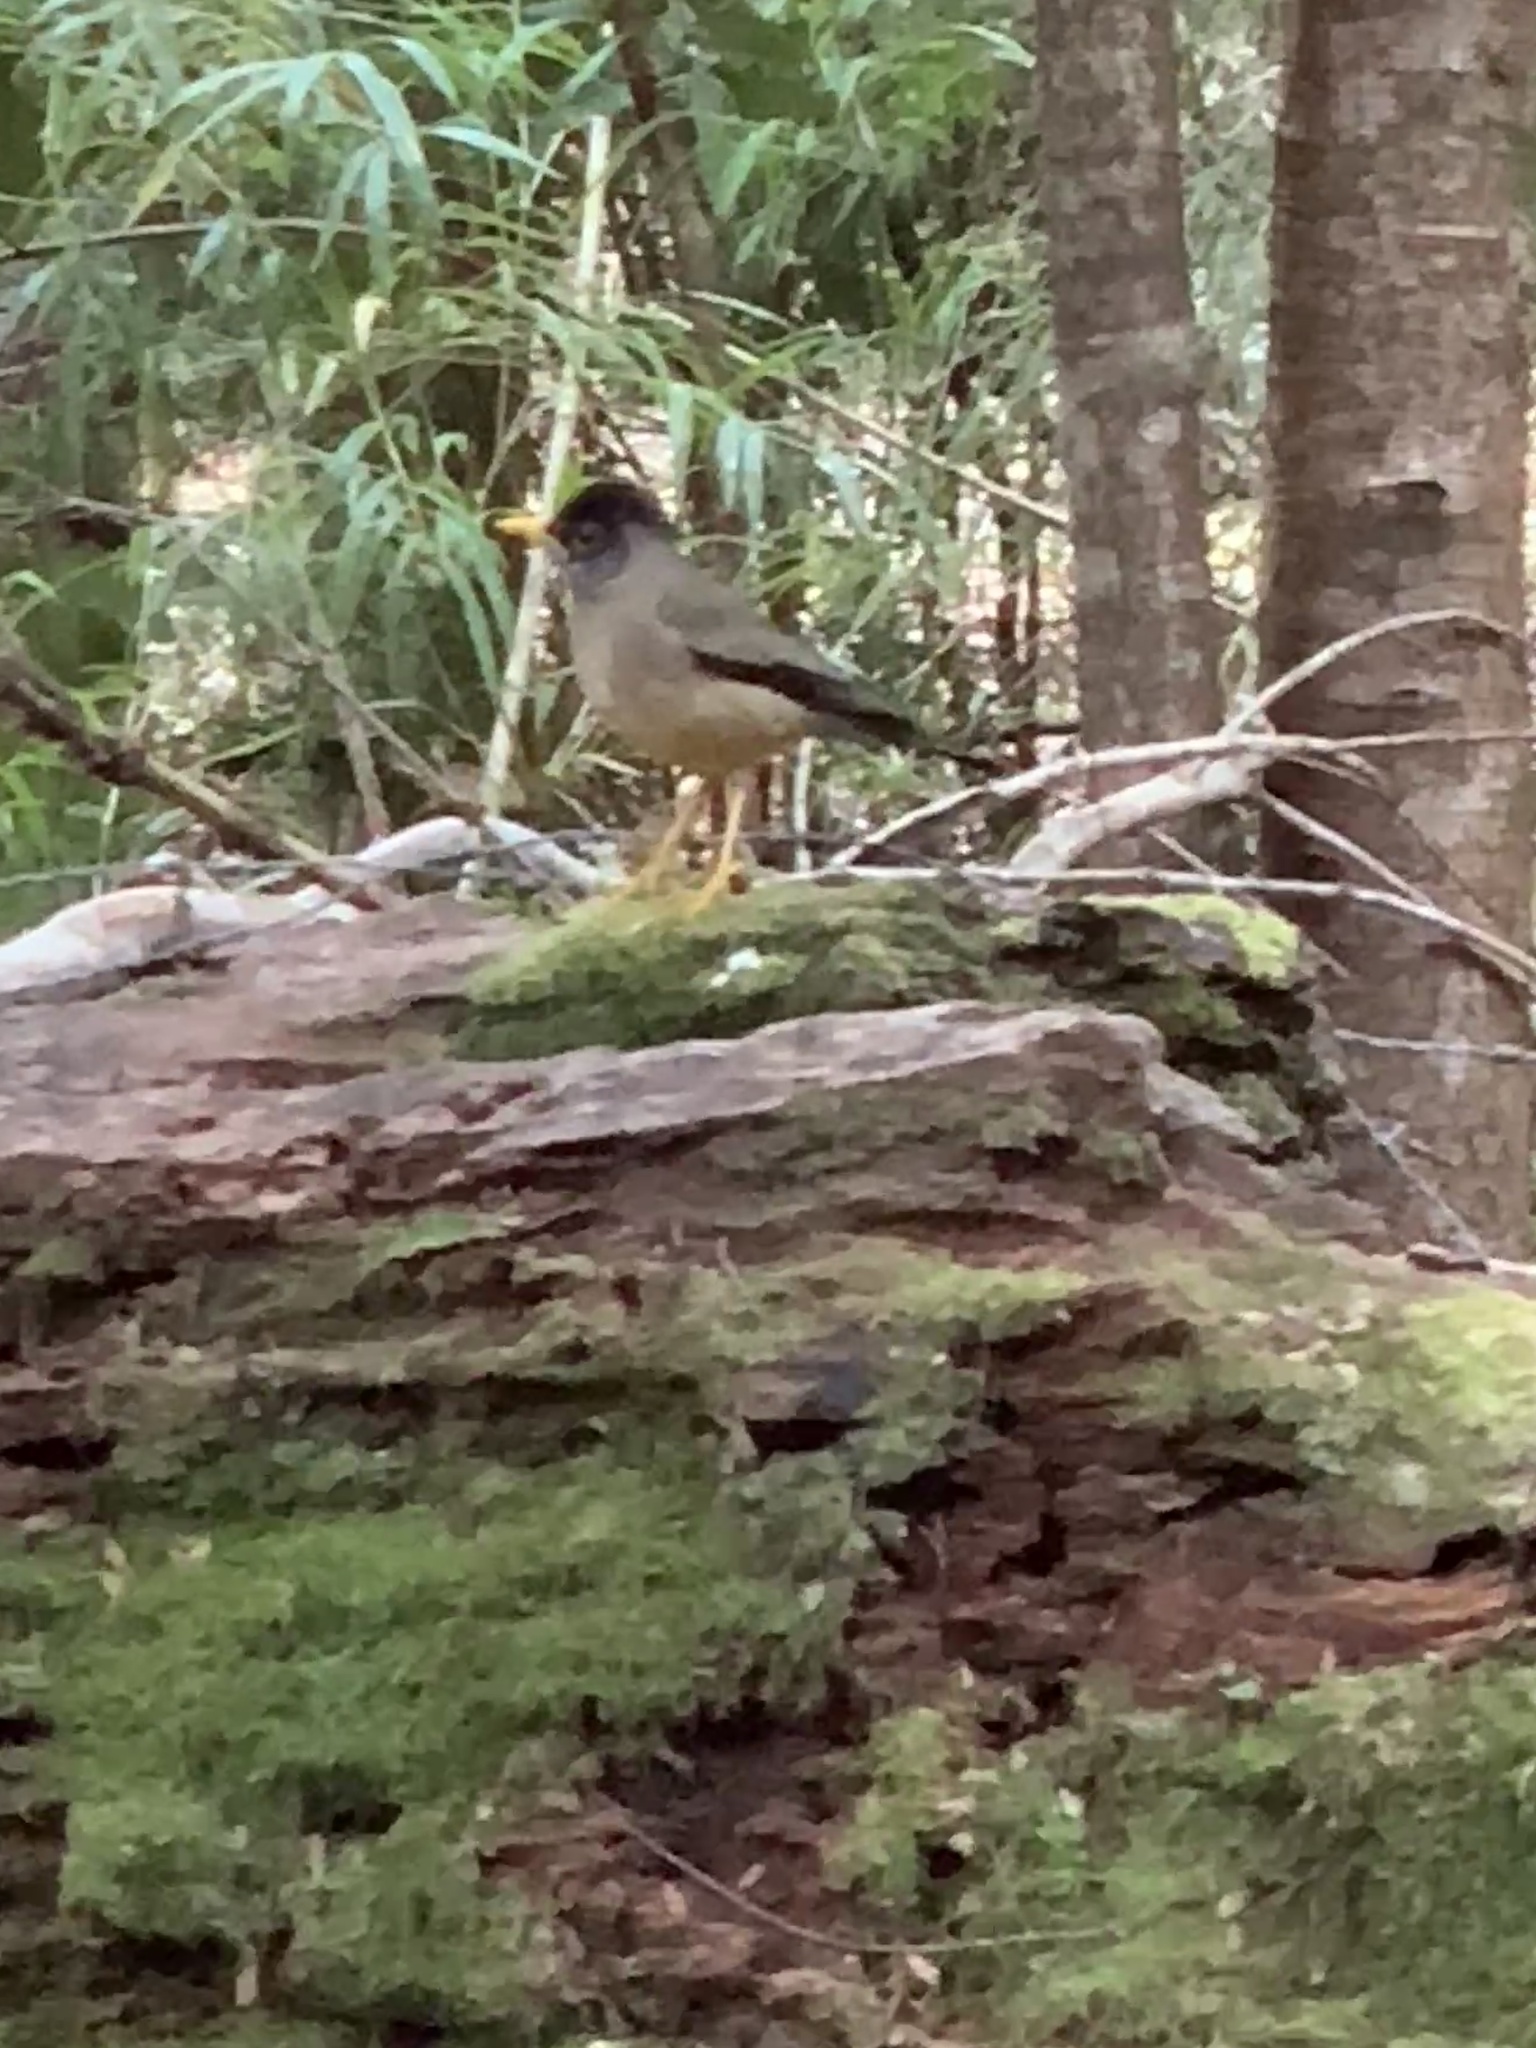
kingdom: Animalia
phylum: Chordata
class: Aves
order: Passeriformes
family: Turdidae
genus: Turdus
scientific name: Turdus falcklandii
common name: Austral thrush
